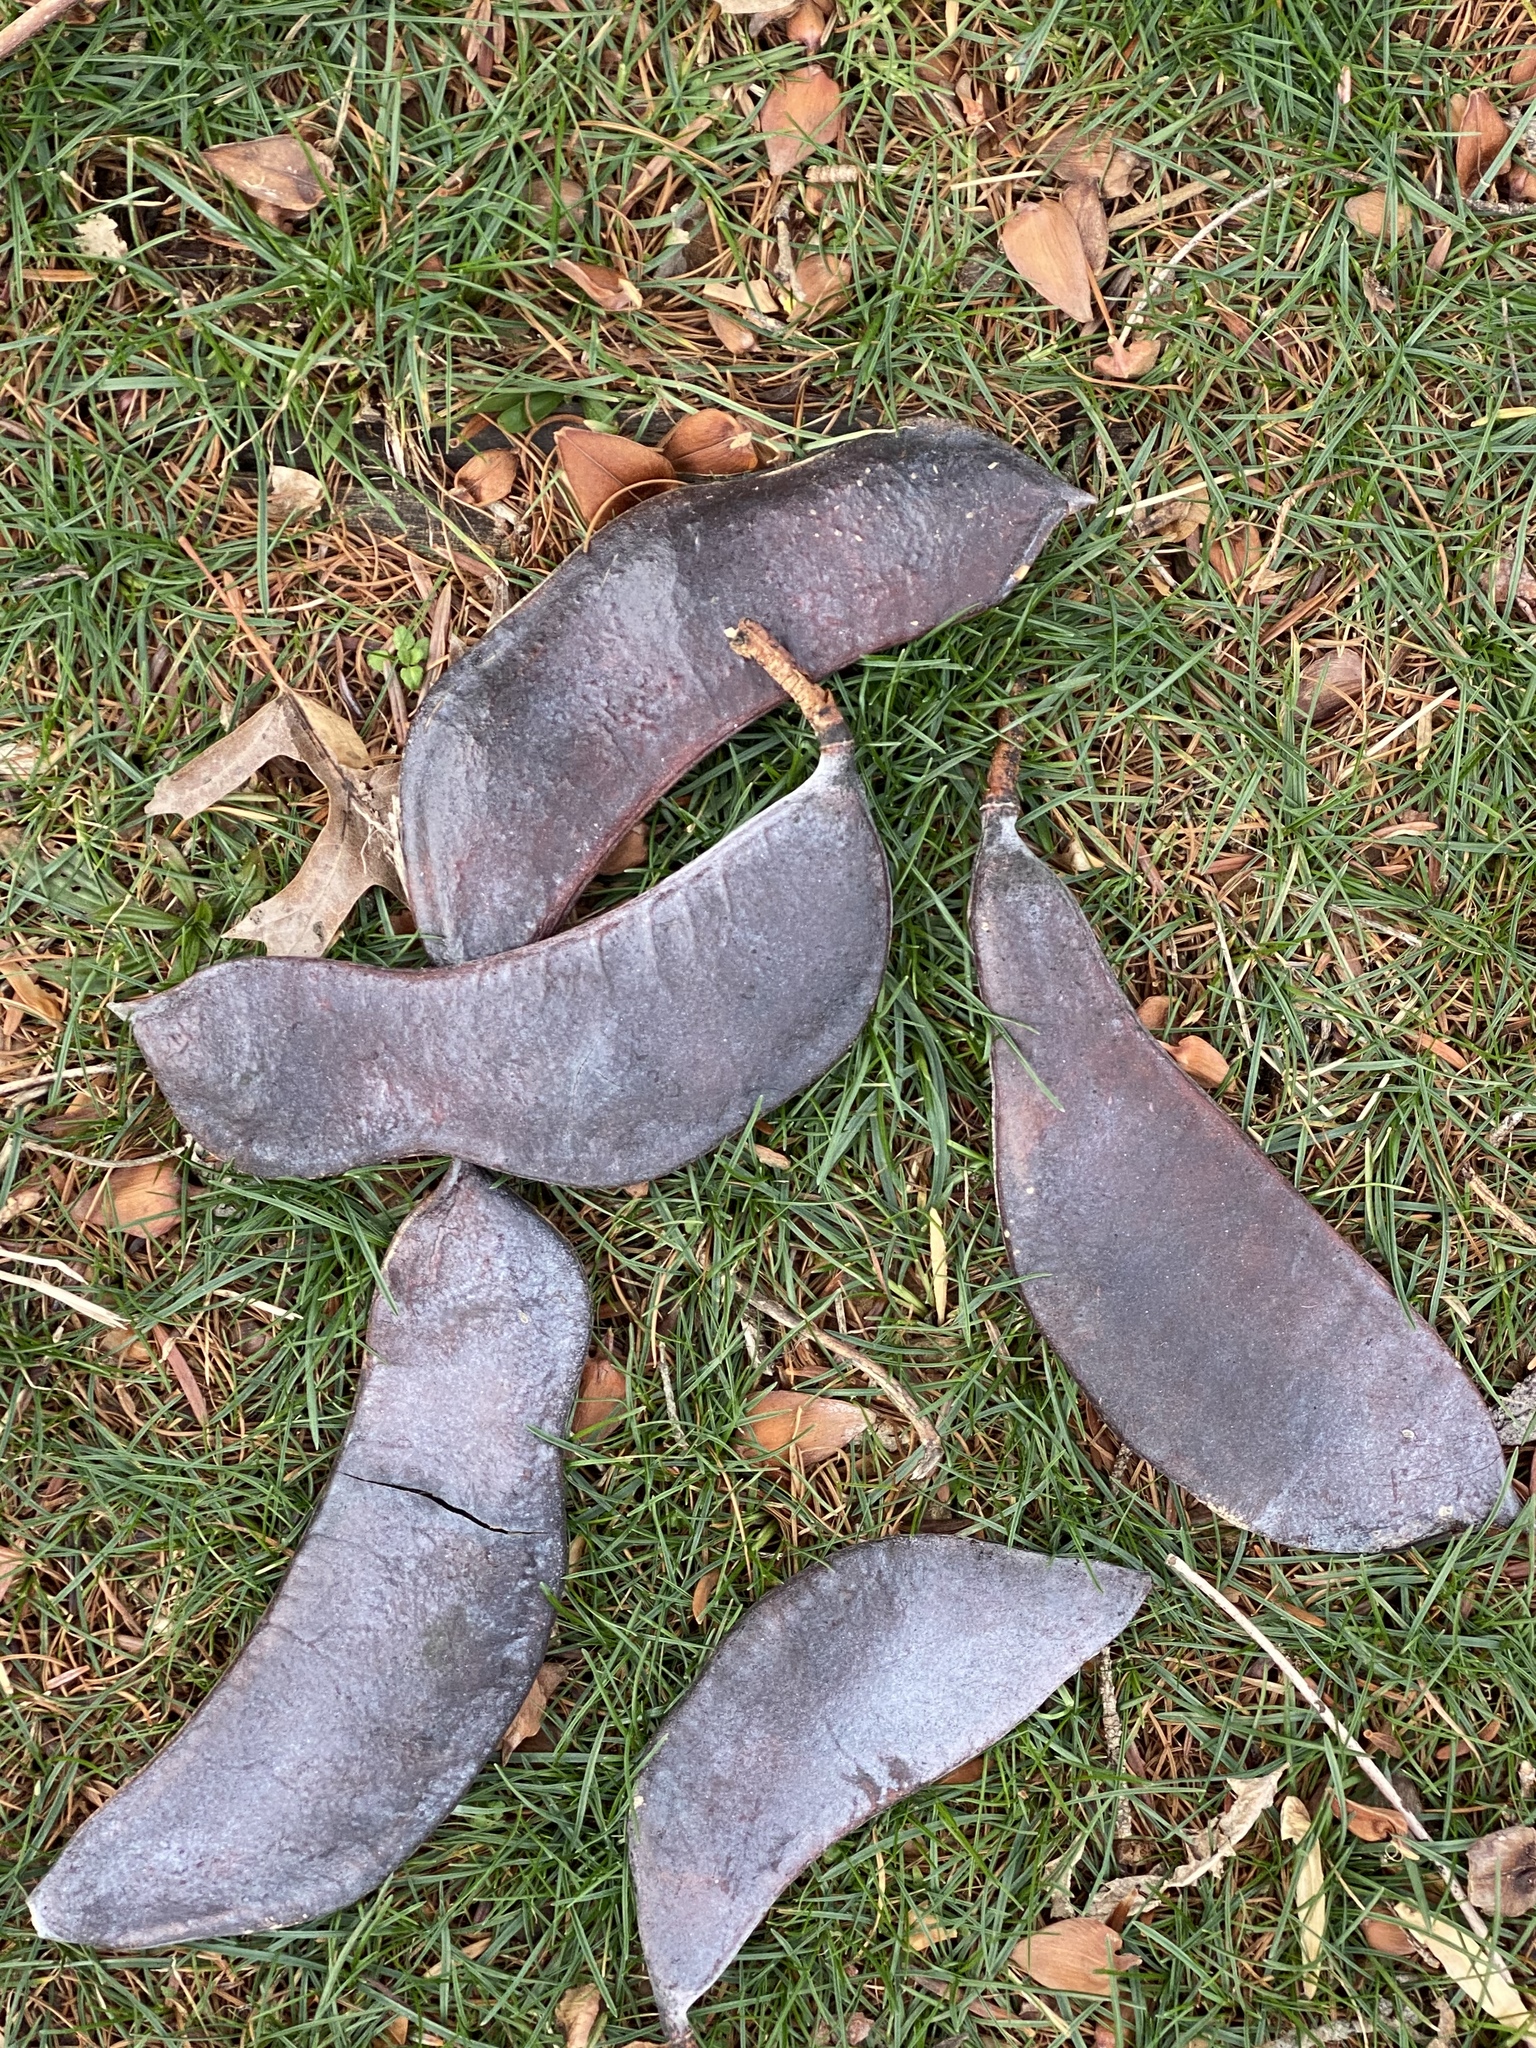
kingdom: Plantae
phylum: Tracheophyta
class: Magnoliopsida
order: Fabales
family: Fabaceae
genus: Gymnocladus
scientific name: Gymnocladus dioicus
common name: Kentucky coffee-tree
